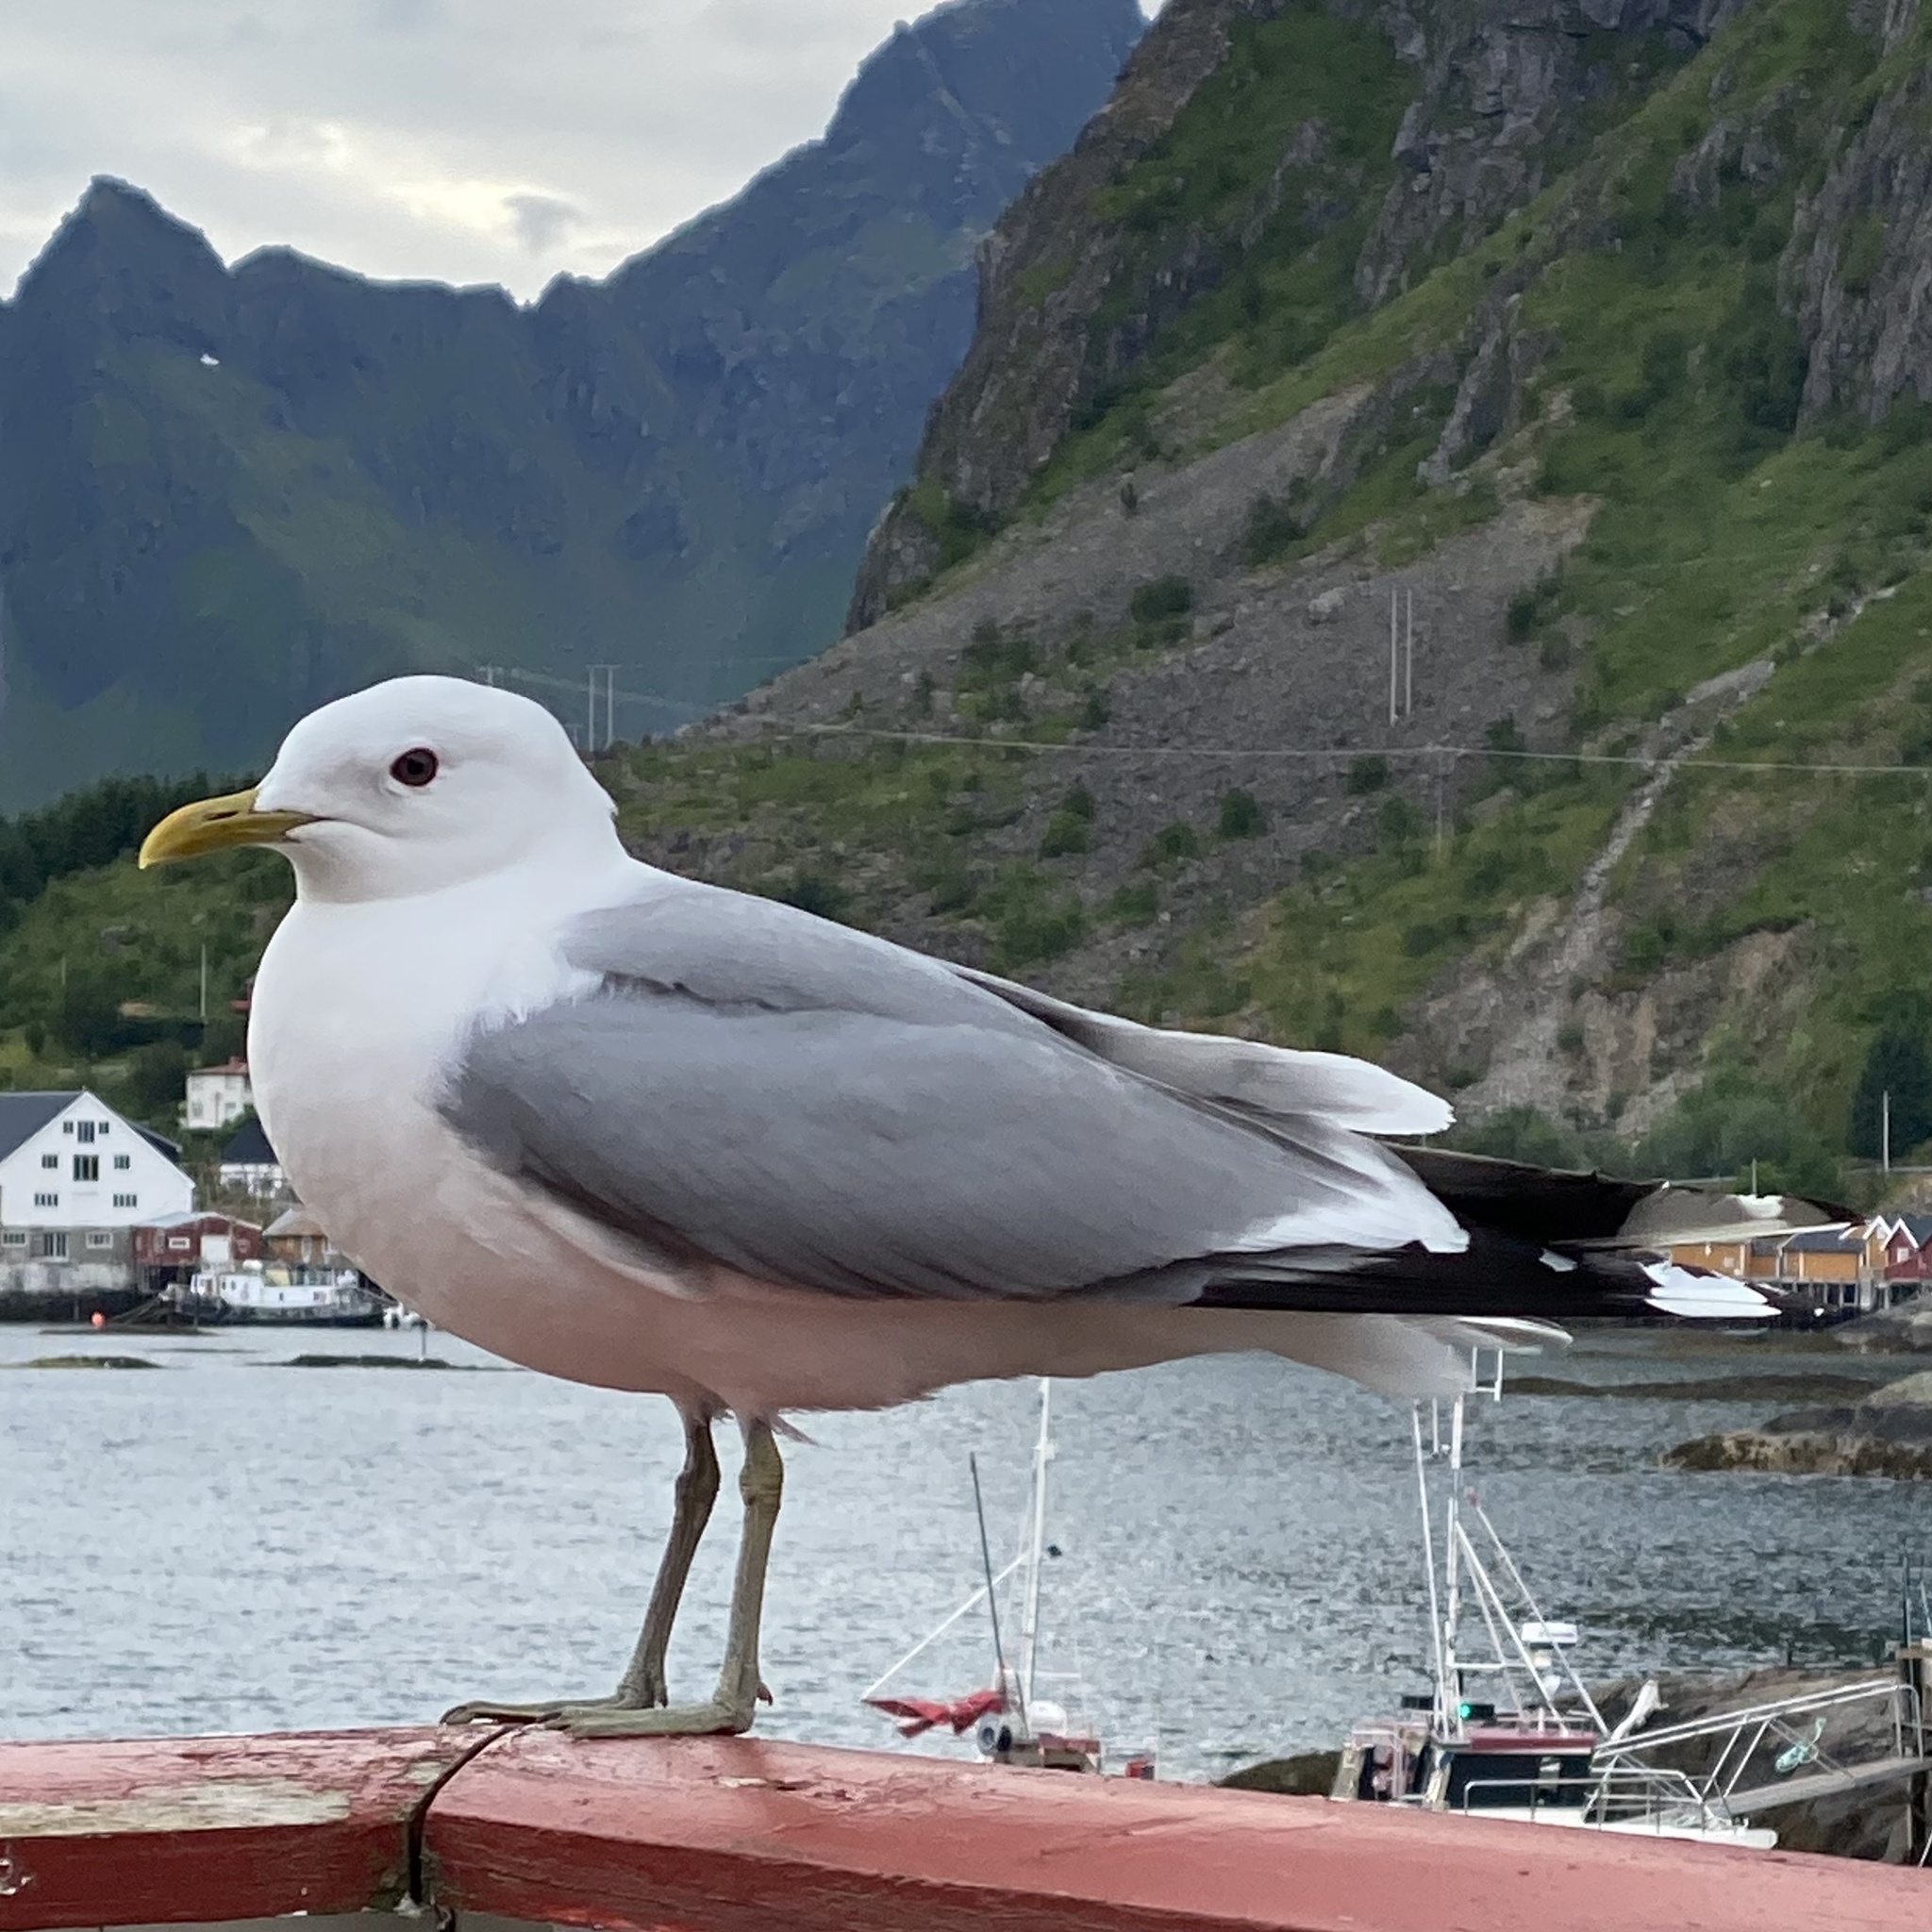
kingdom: Animalia
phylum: Chordata
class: Aves
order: Charadriiformes
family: Laridae
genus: Larus
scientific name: Larus canus
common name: Mew gull
